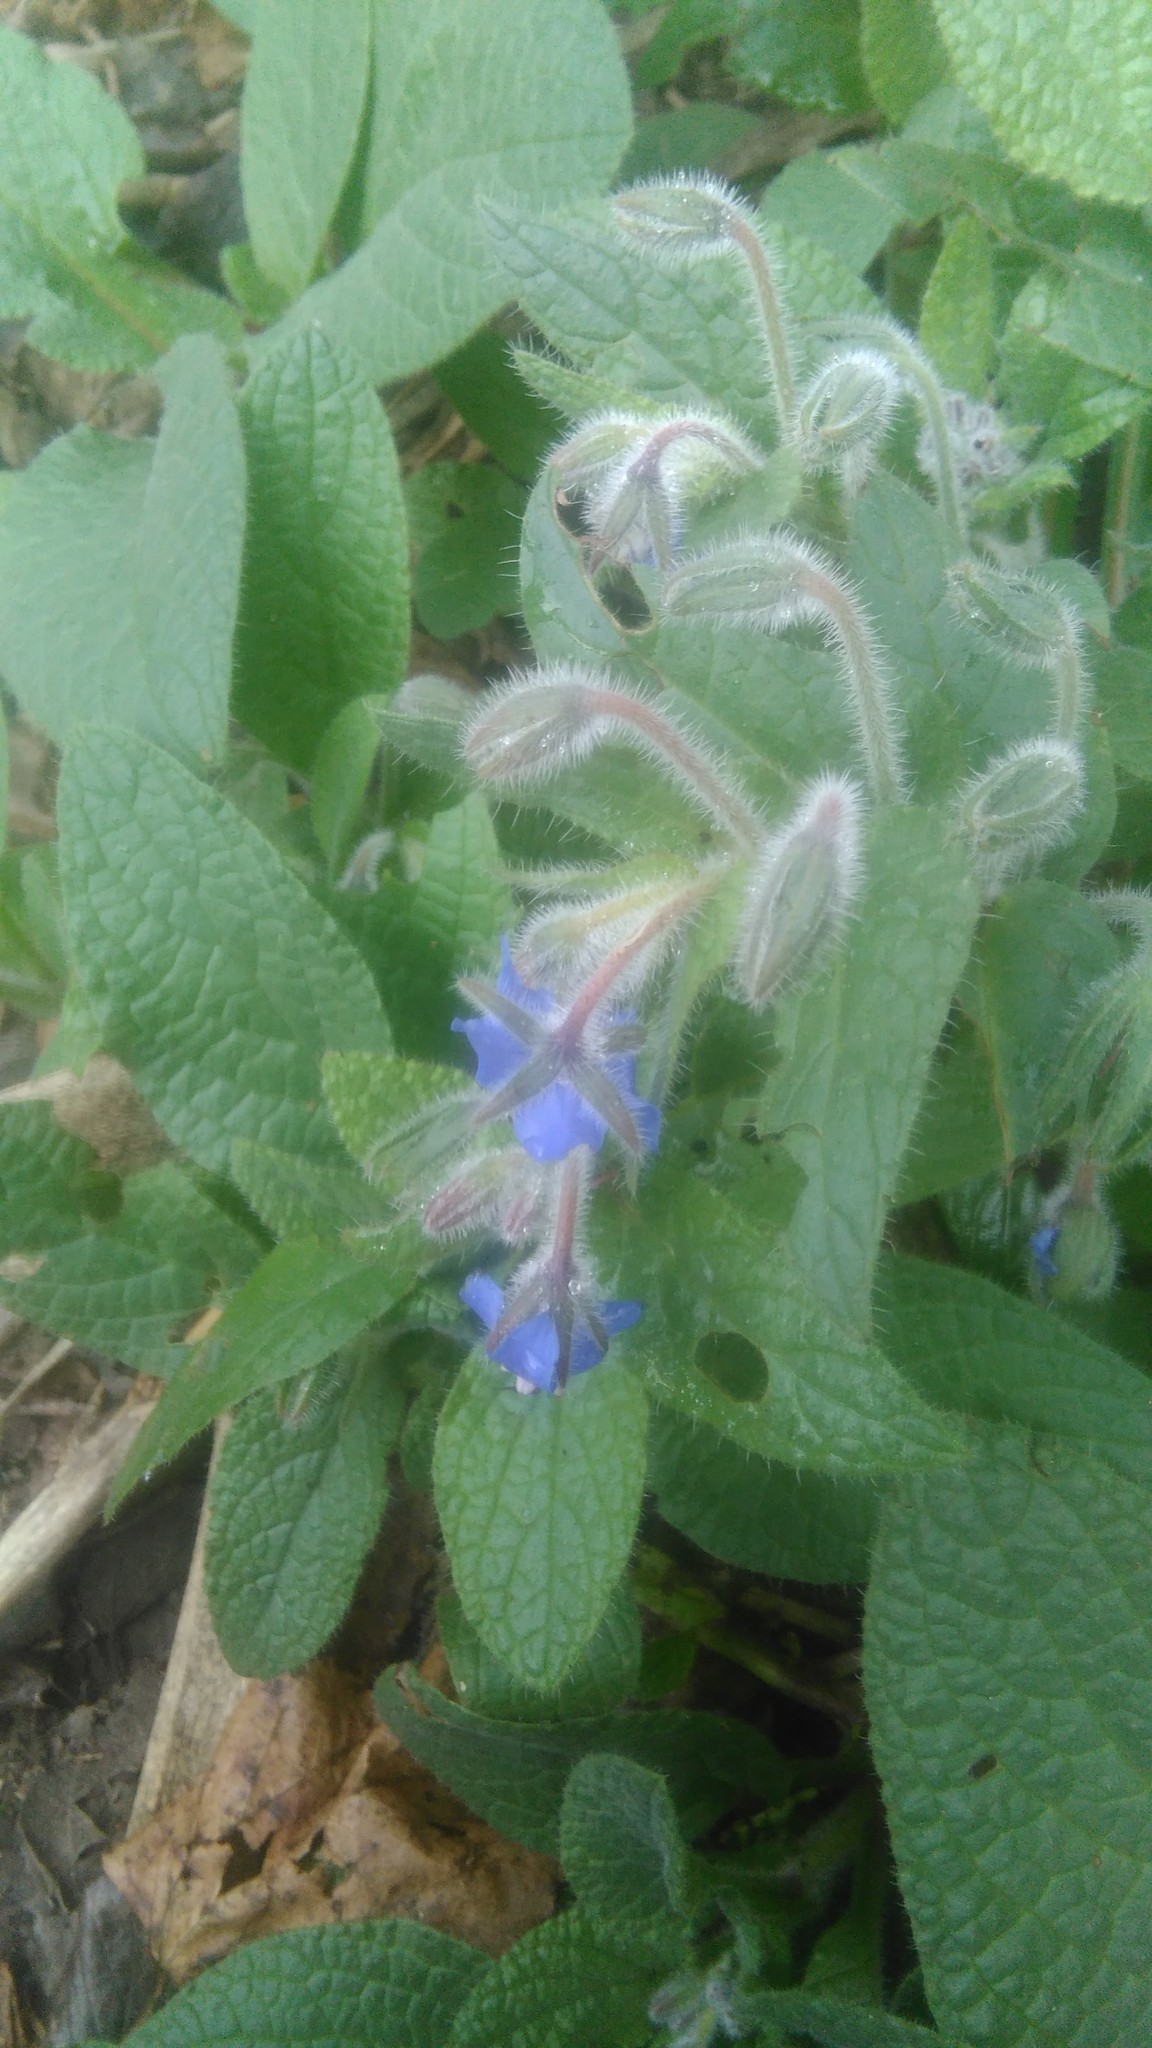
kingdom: Plantae
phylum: Tracheophyta
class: Magnoliopsida
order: Boraginales
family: Boraginaceae
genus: Borago
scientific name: Borago officinalis
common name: Borage
